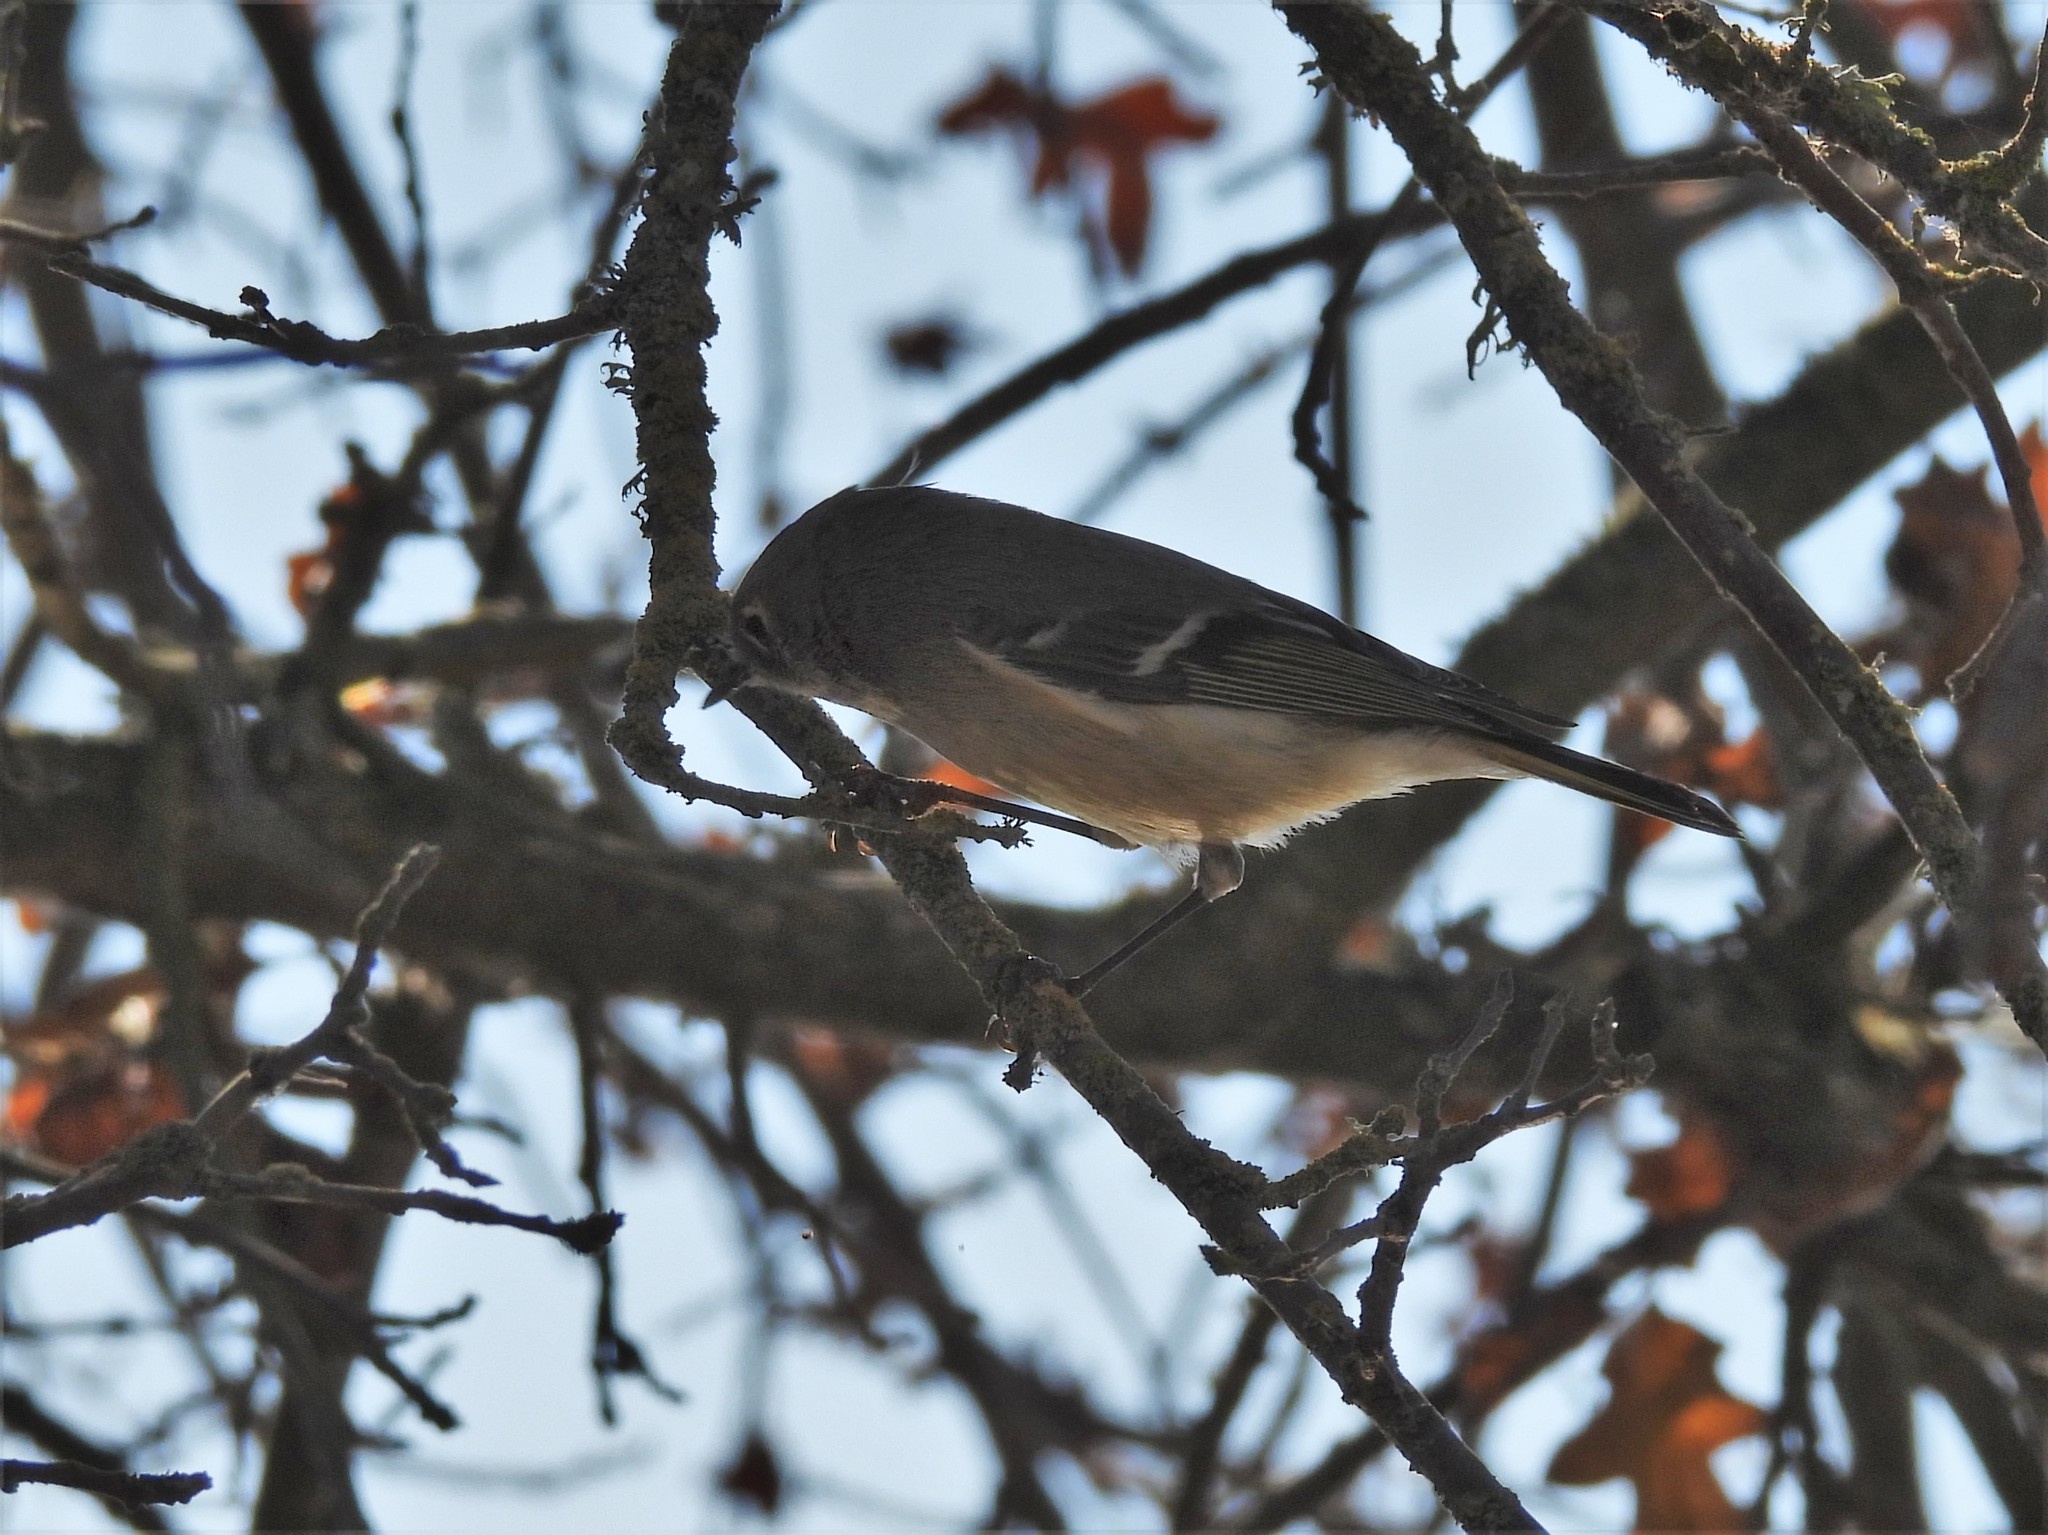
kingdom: Animalia
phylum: Chordata
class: Aves
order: Passeriformes
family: Regulidae
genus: Regulus
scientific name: Regulus calendula
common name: Ruby-crowned kinglet
